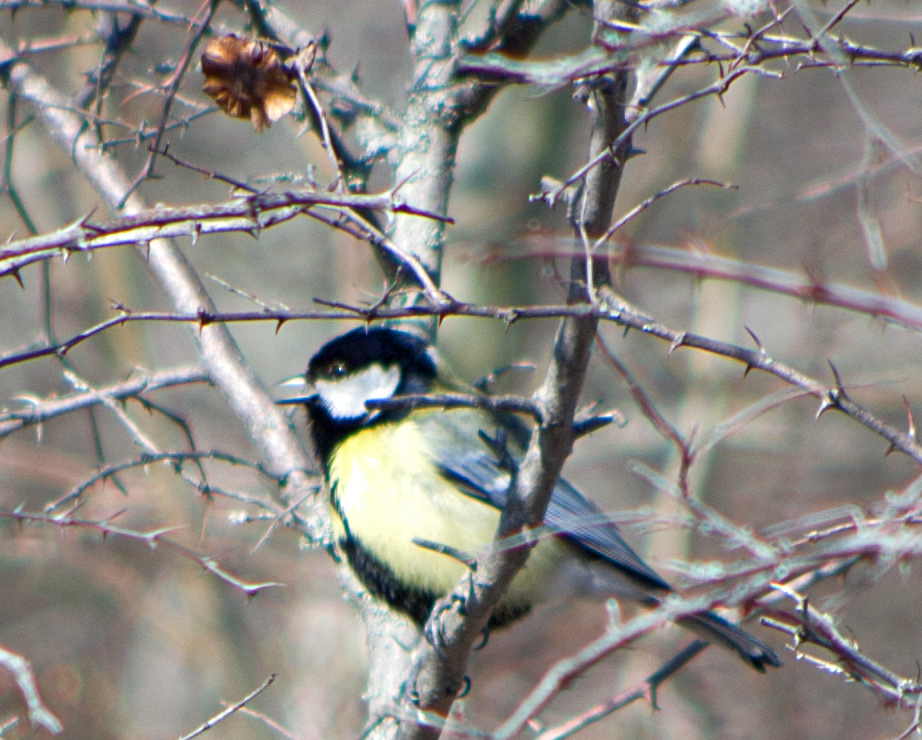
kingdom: Animalia
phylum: Chordata
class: Aves
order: Passeriformes
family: Paridae
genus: Parus
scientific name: Parus major
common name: Great tit
